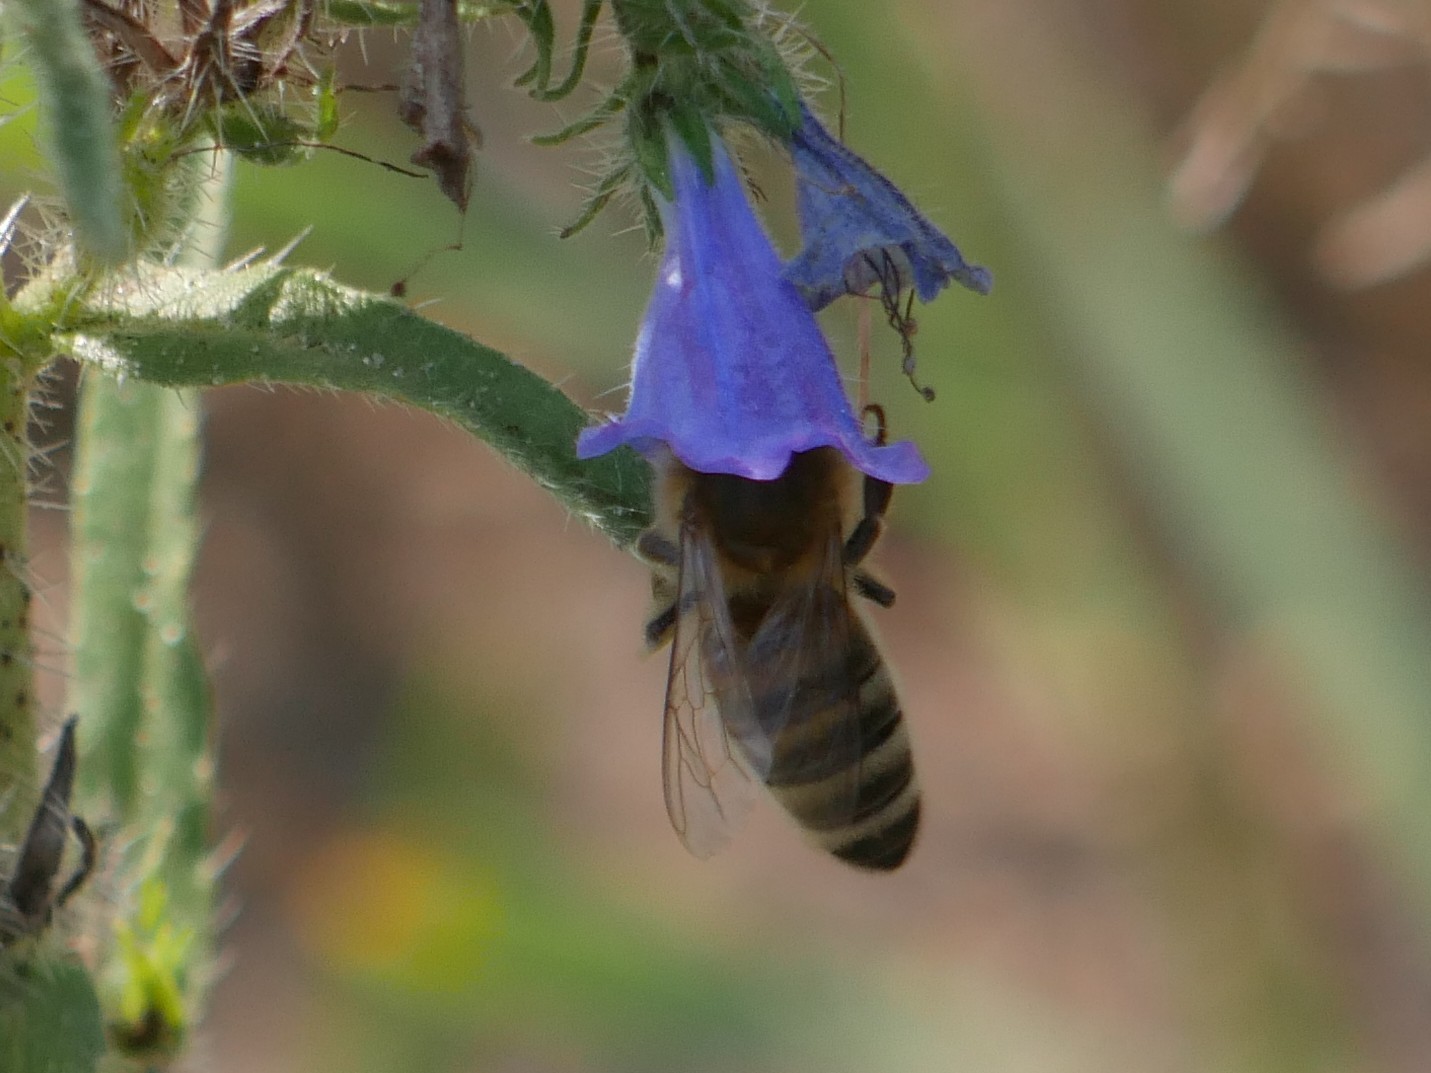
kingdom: Animalia
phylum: Arthropoda
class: Insecta
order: Hymenoptera
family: Apidae
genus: Apis
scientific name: Apis mellifera
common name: Honey bee
